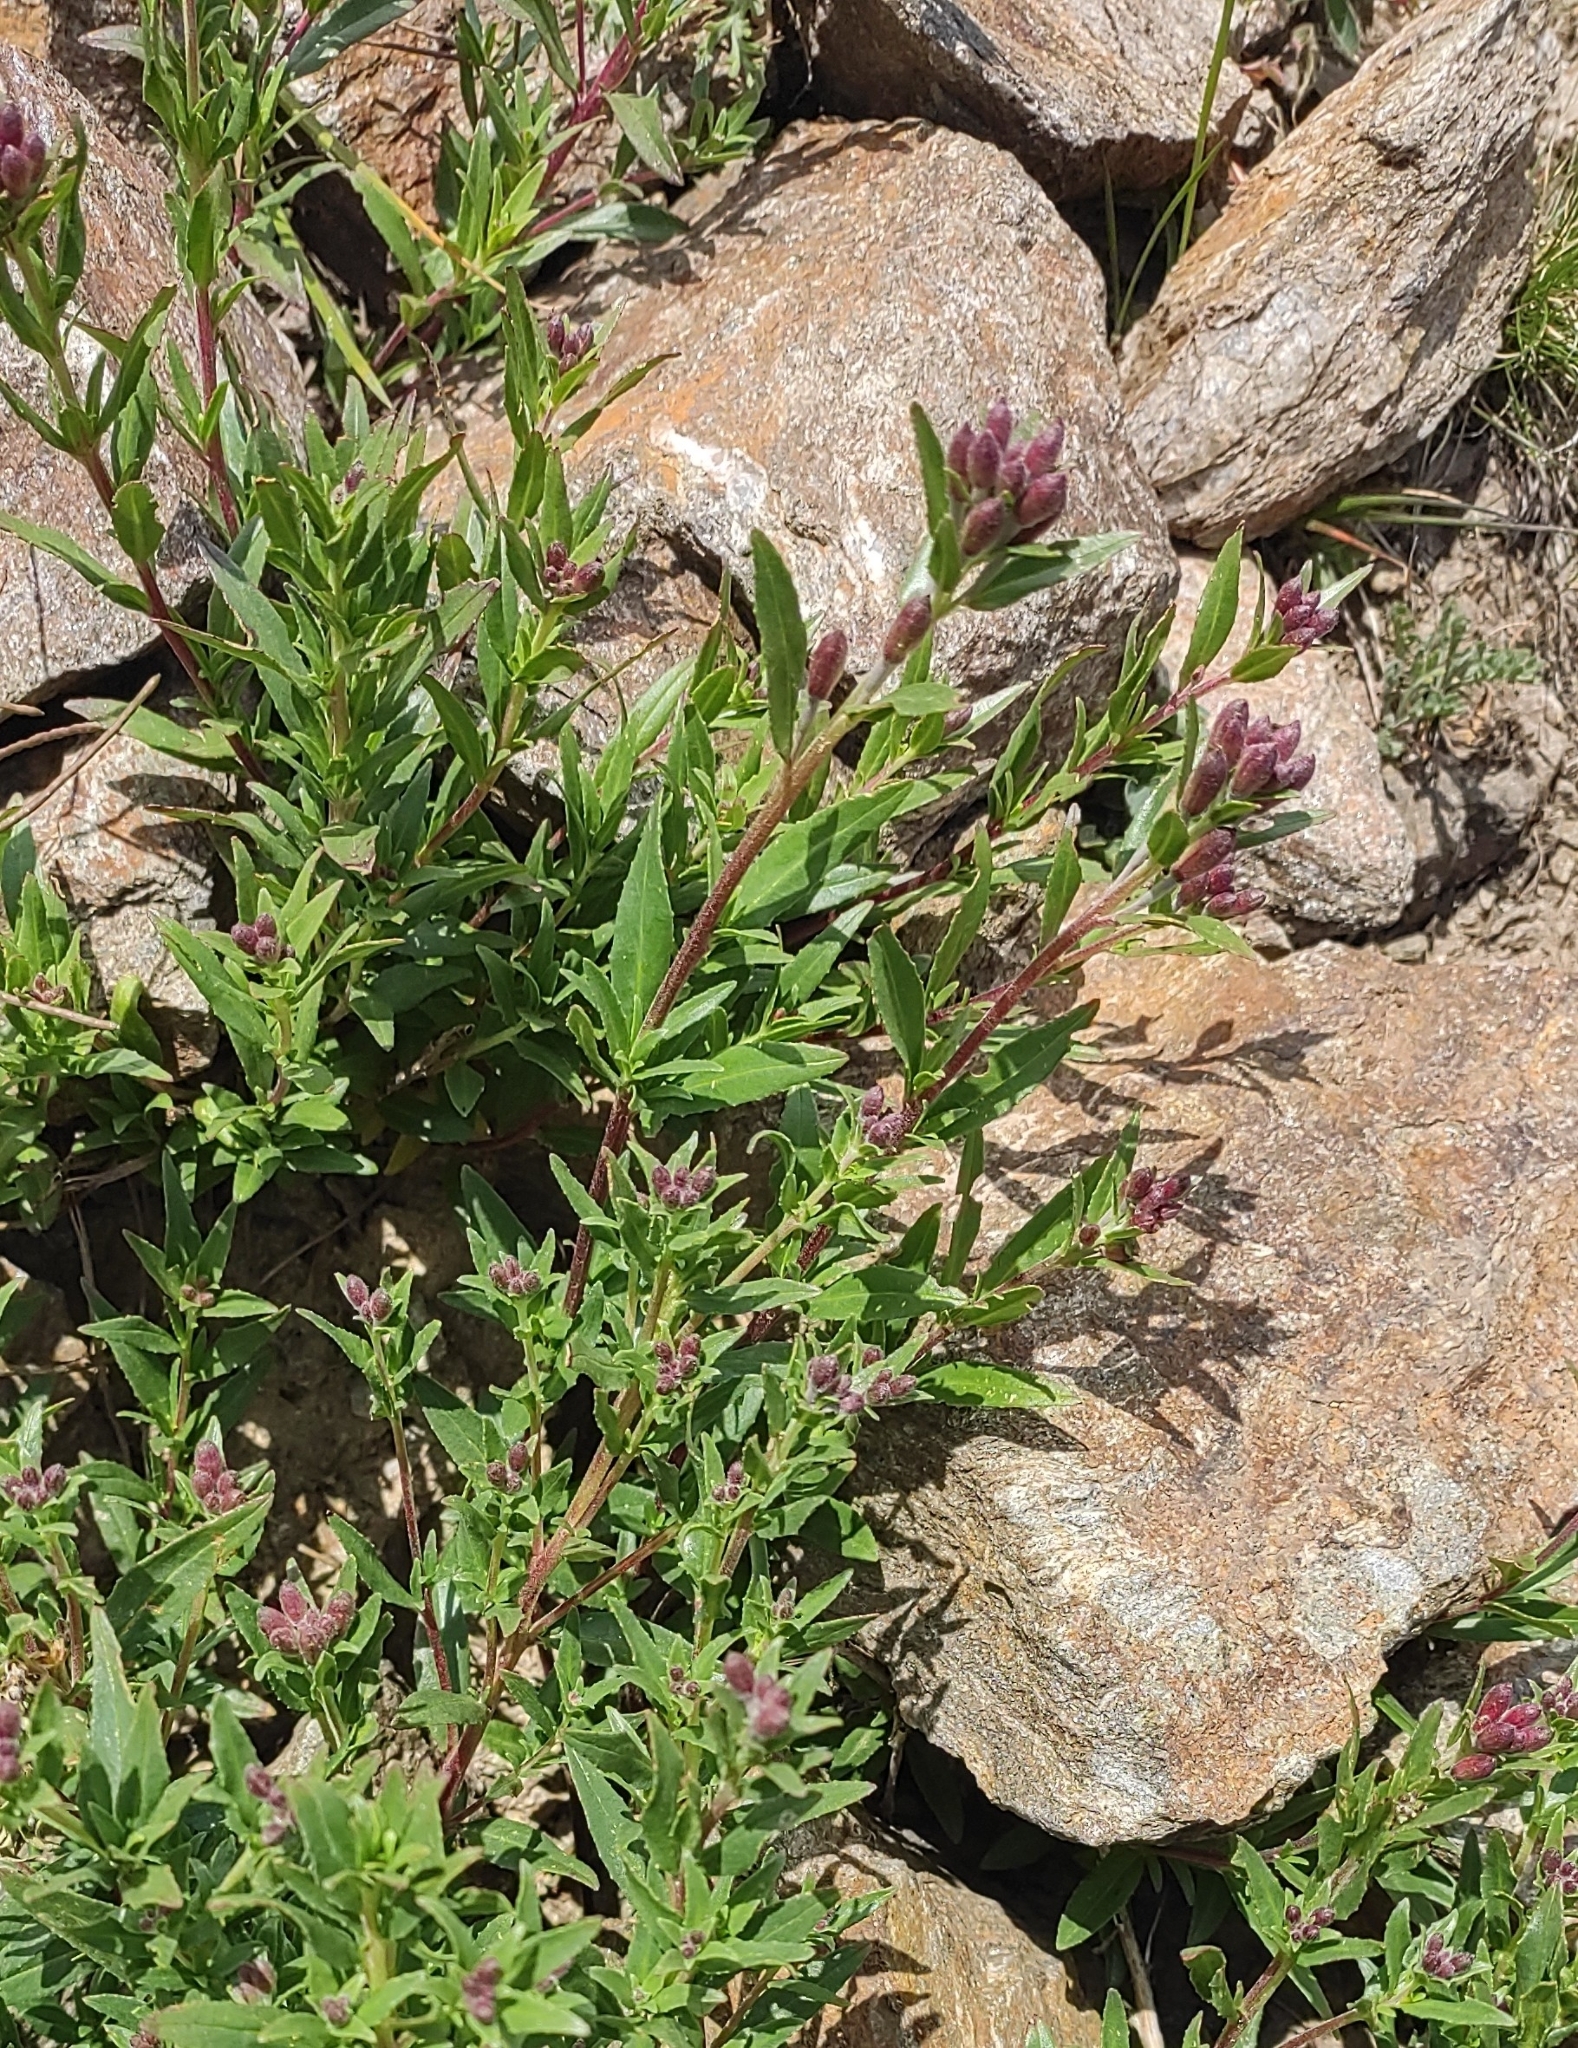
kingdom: Plantae
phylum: Tracheophyta
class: Magnoliopsida
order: Myrtales
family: Onagraceae
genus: Chamaenerion
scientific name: Chamaenerion colchicum
